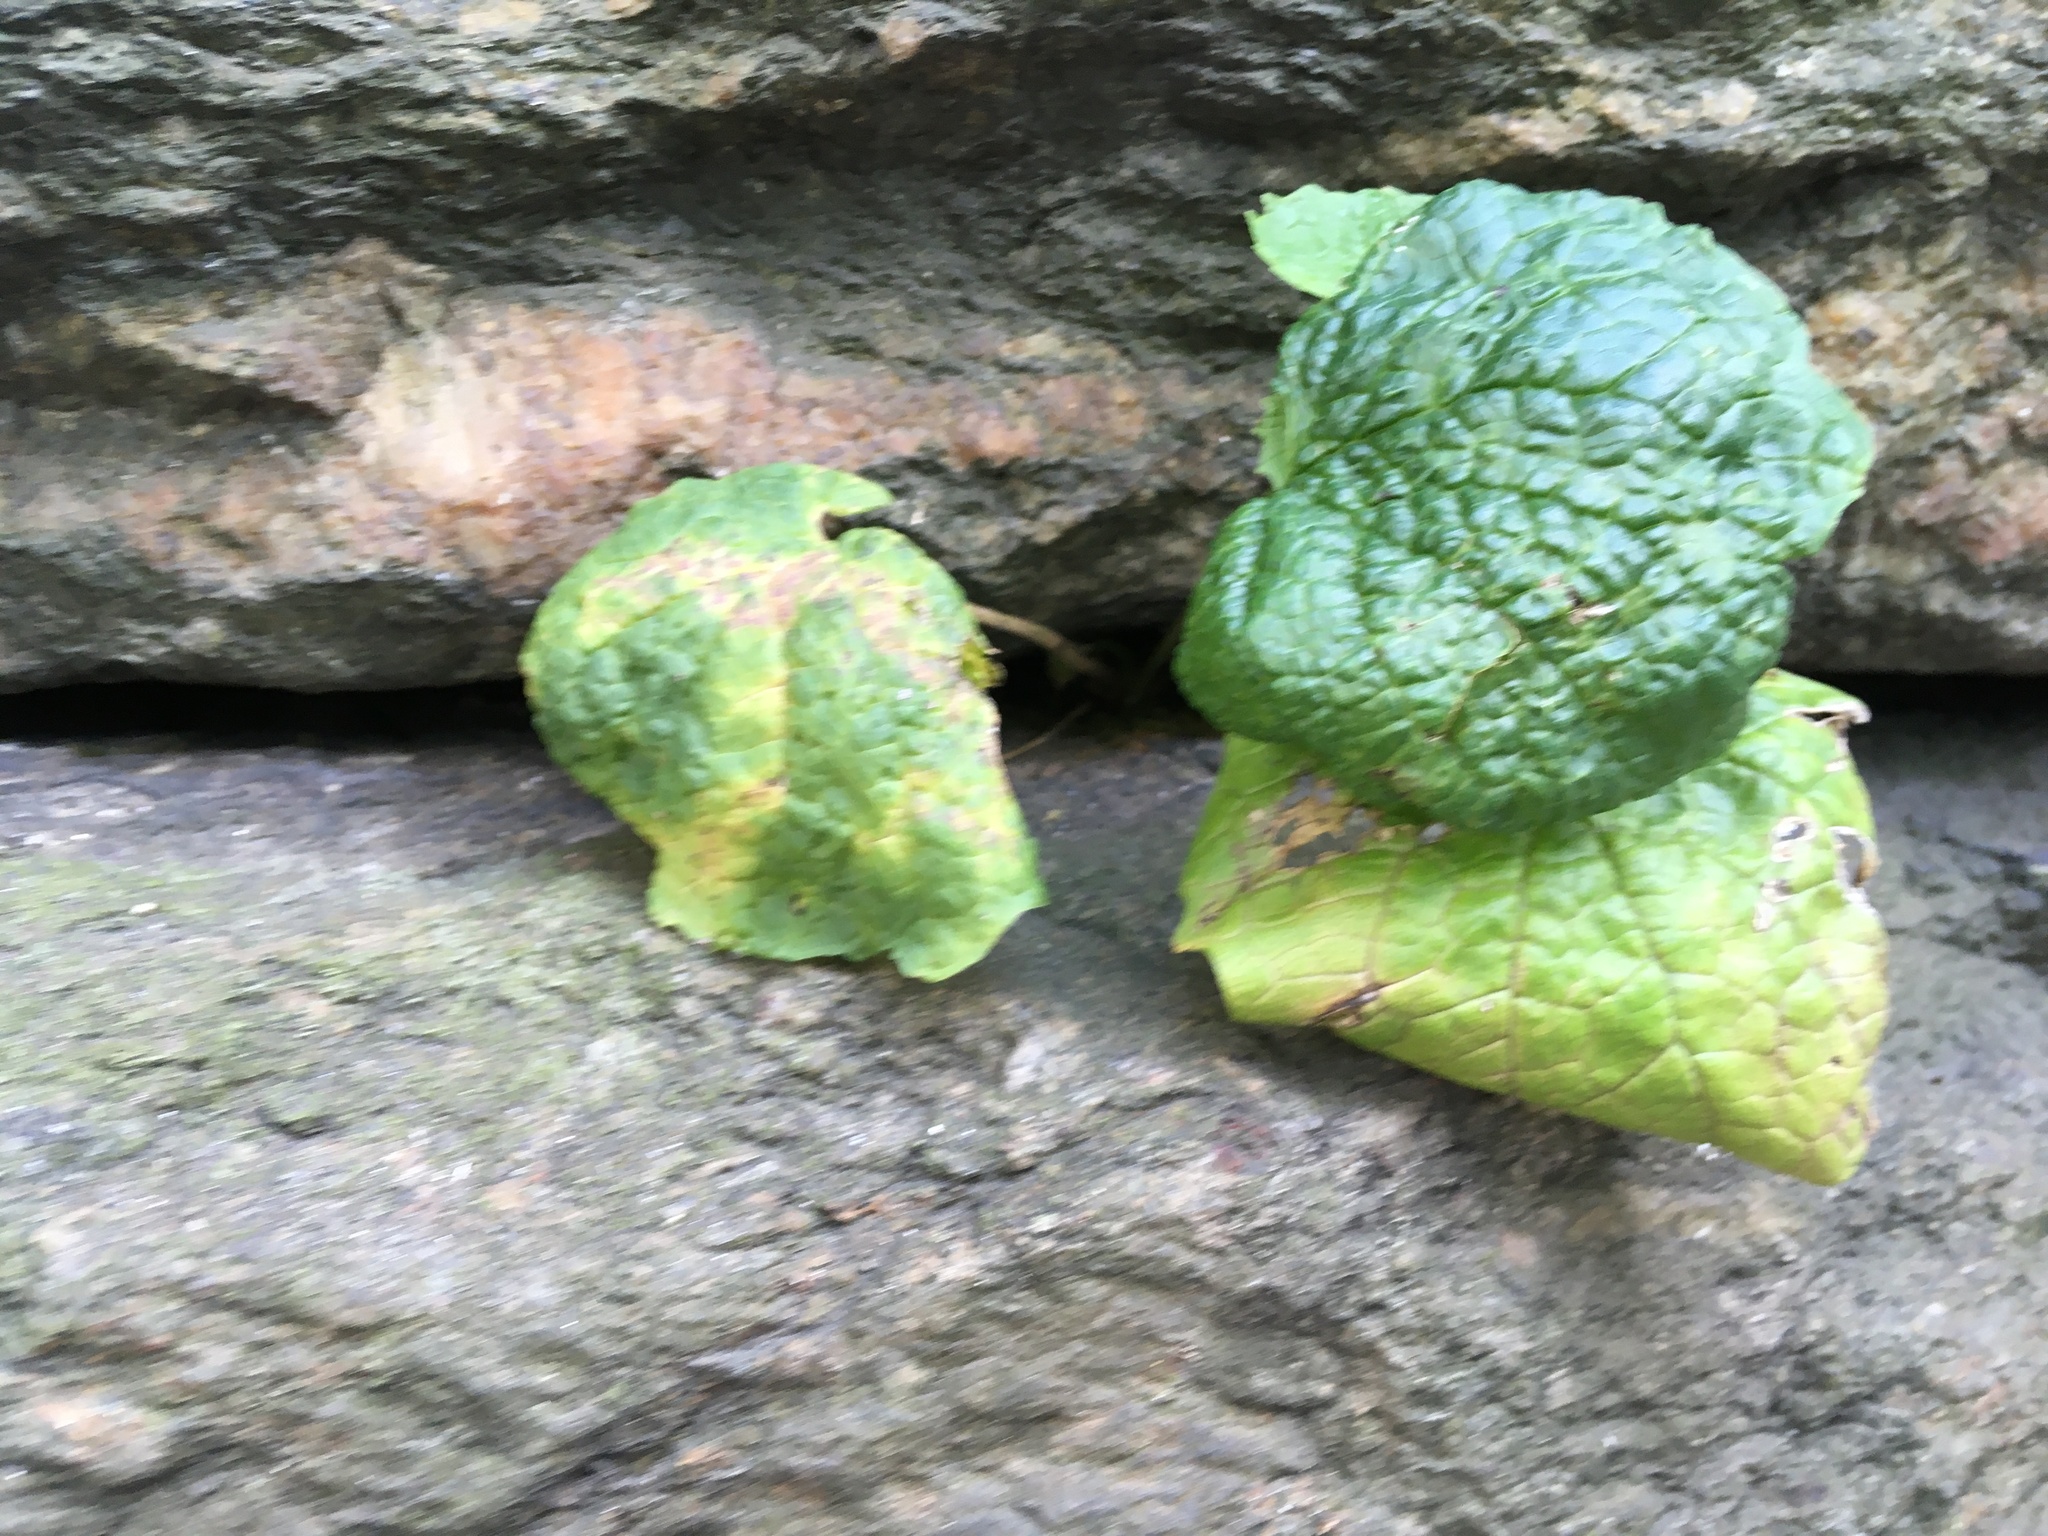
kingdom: Plantae
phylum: Tracheophyta
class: Magnoliopsida
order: Brassicales
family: Brassicaceae
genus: Alliaria
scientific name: Alliaria petiolata
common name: Garlic mustard
